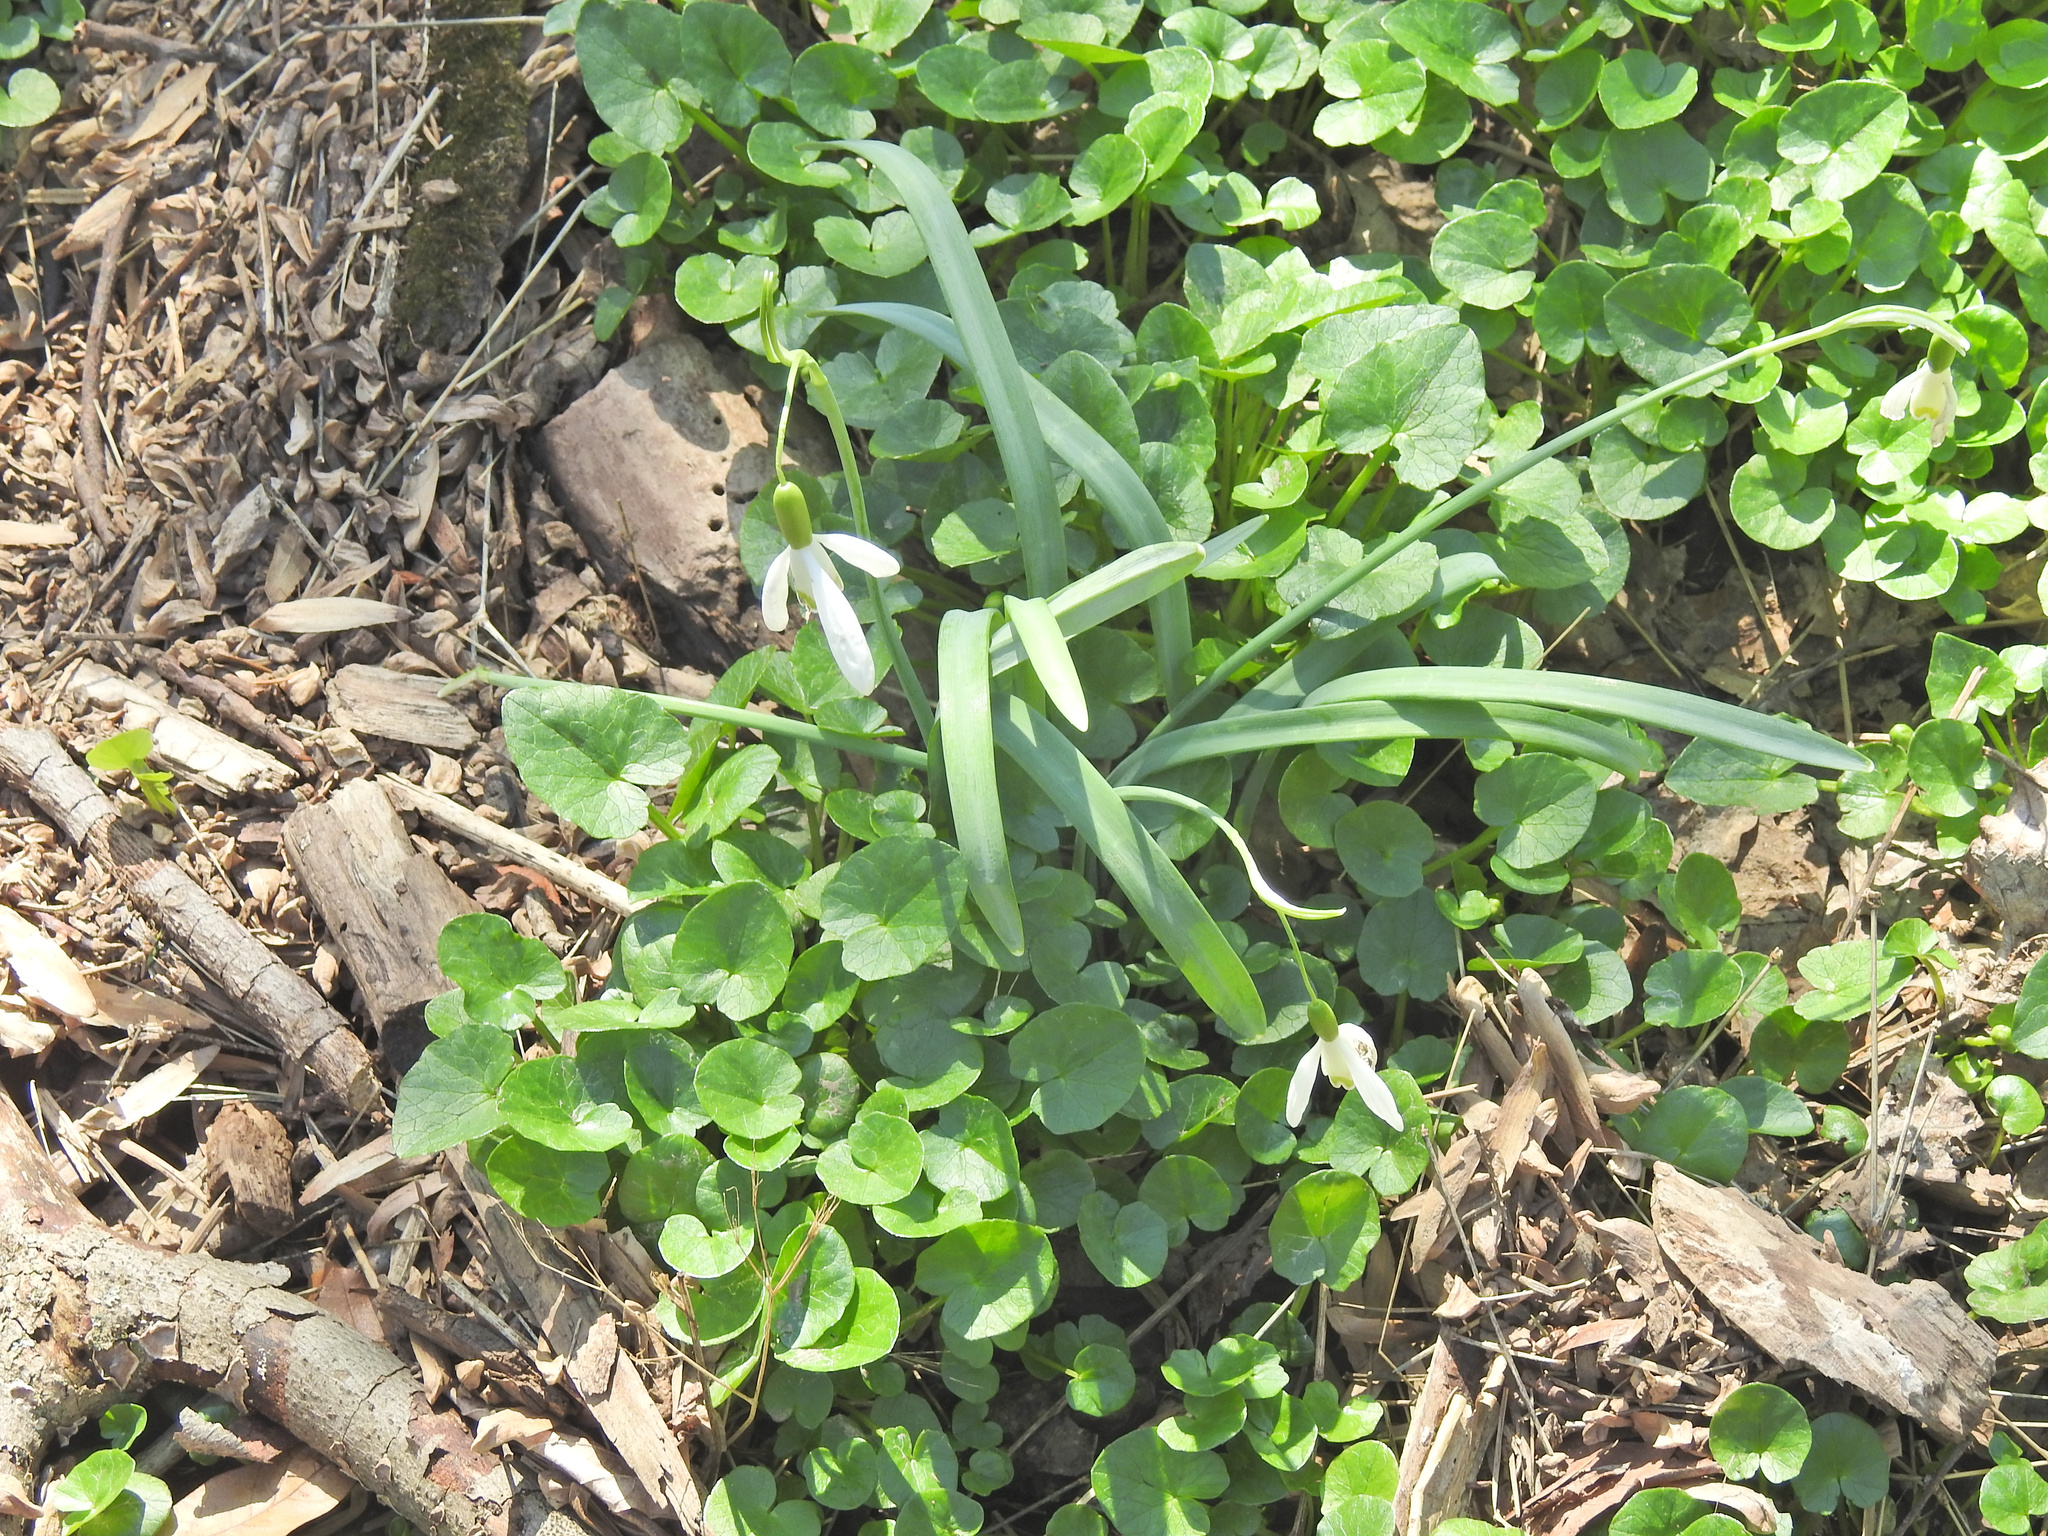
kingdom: Plantae
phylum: Tracheophyta
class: Liliopsida
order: Asparagales
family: Amaryllidaceae
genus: Galanthus
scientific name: Galanthus nivalis
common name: Snowdrop
